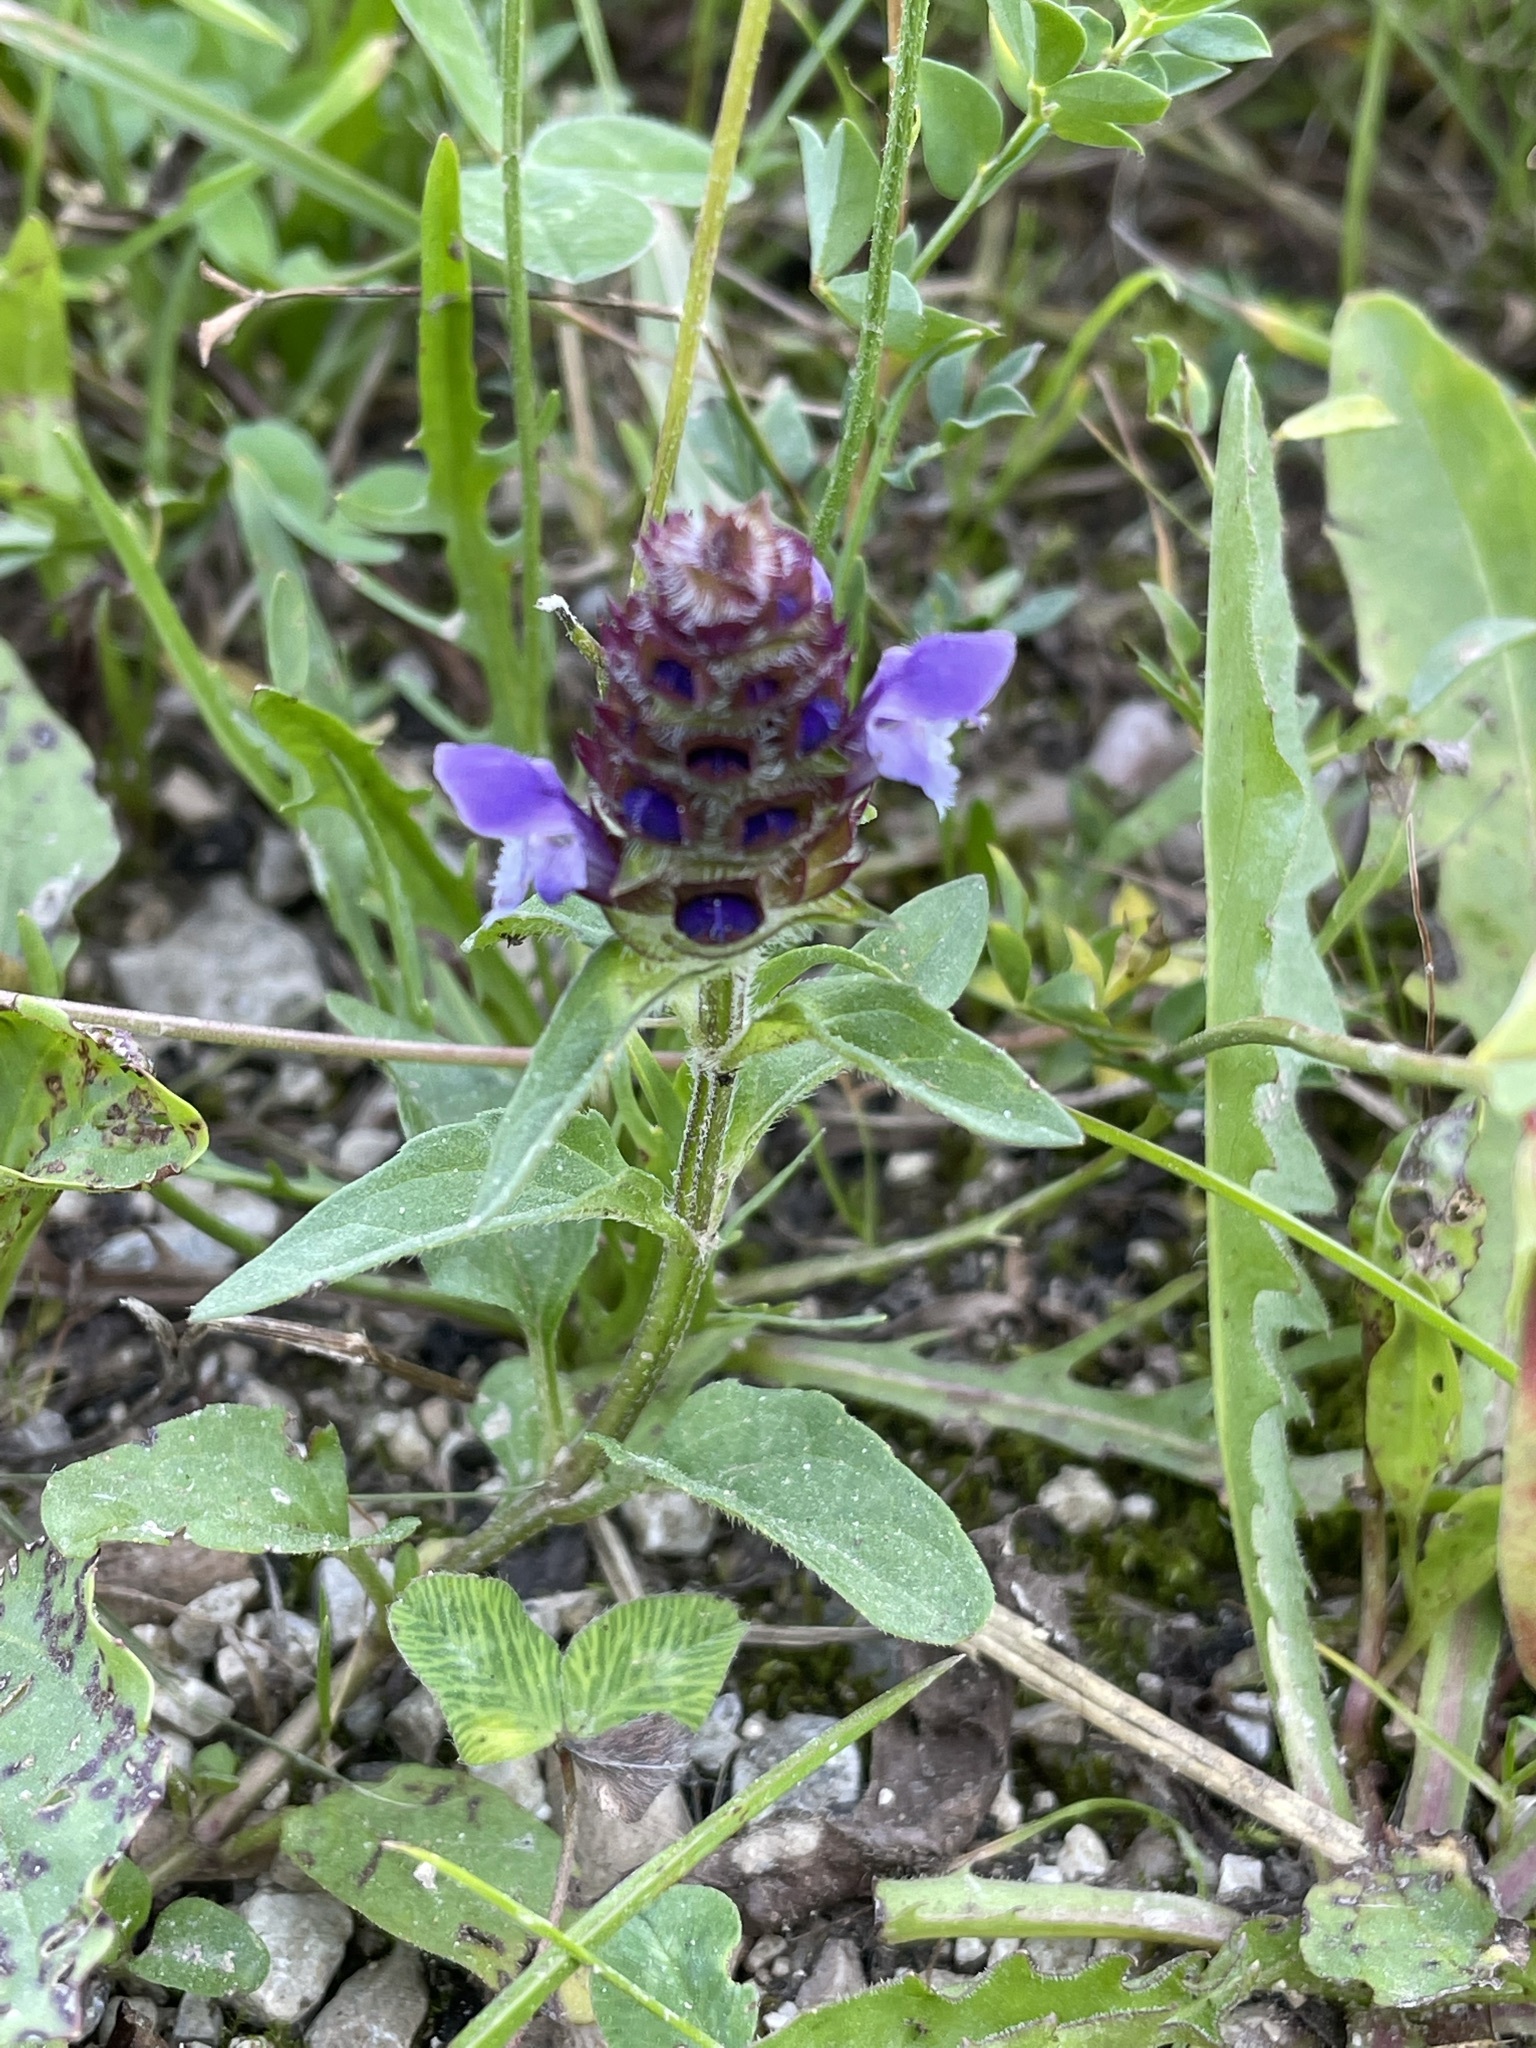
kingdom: Plantae
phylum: Tracheophyta
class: Magnoliopsida
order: Lamiales
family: Lamiaceae
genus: Prunella
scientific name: Prunella vulgaris
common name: Heal-all
